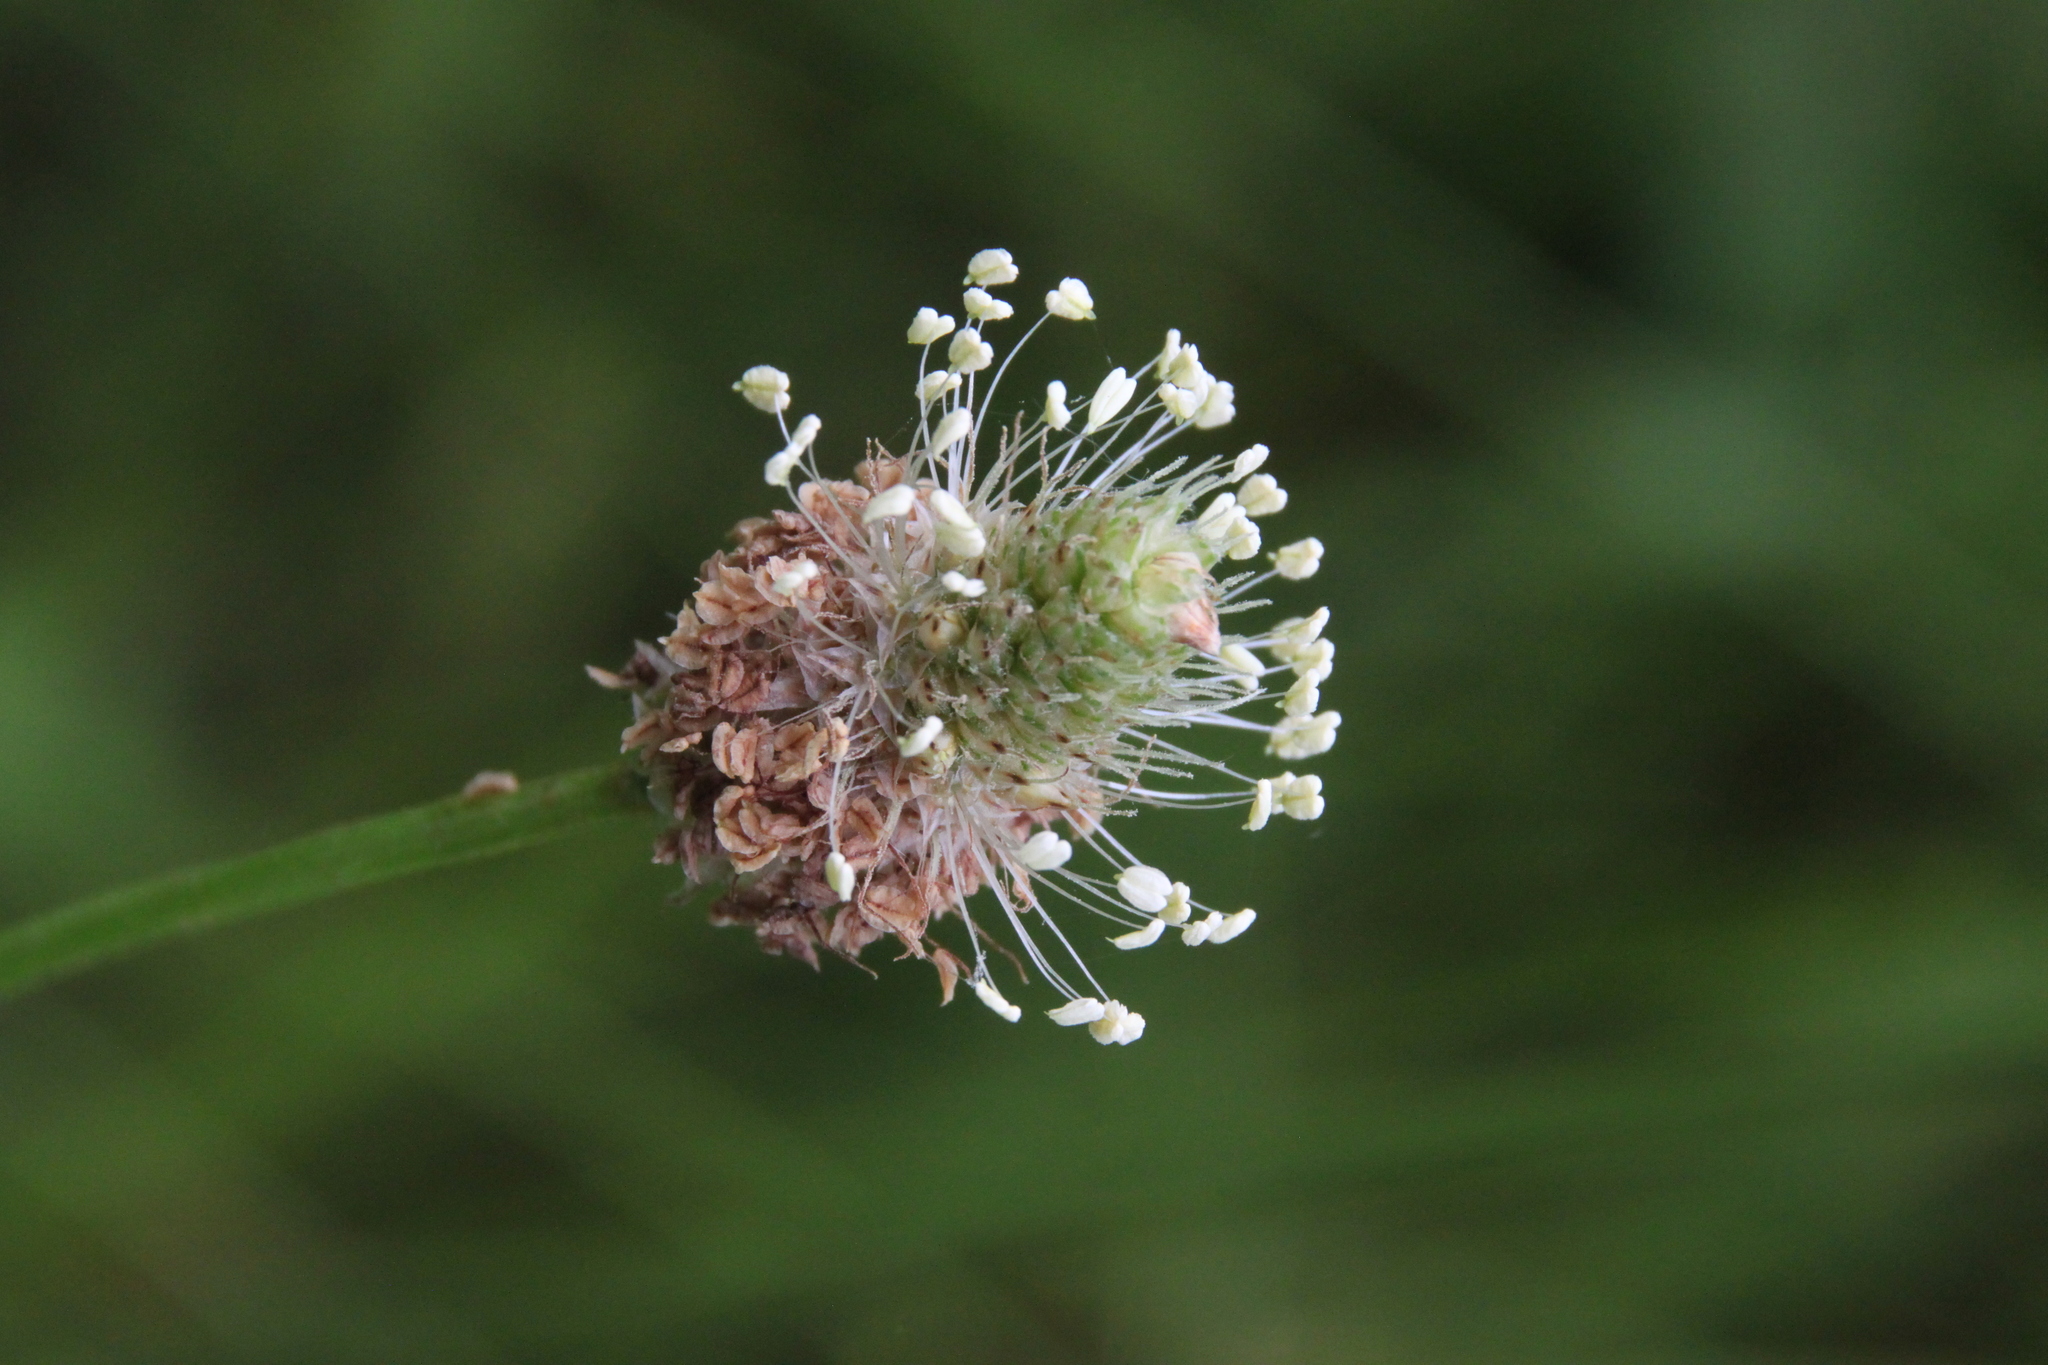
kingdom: Plantae
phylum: Tracheophyta
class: Magnoliopsida
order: Lamiales
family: Plantaginaceae
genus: Plantago
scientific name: Plantago lanceolata
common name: Ribwort plantain
